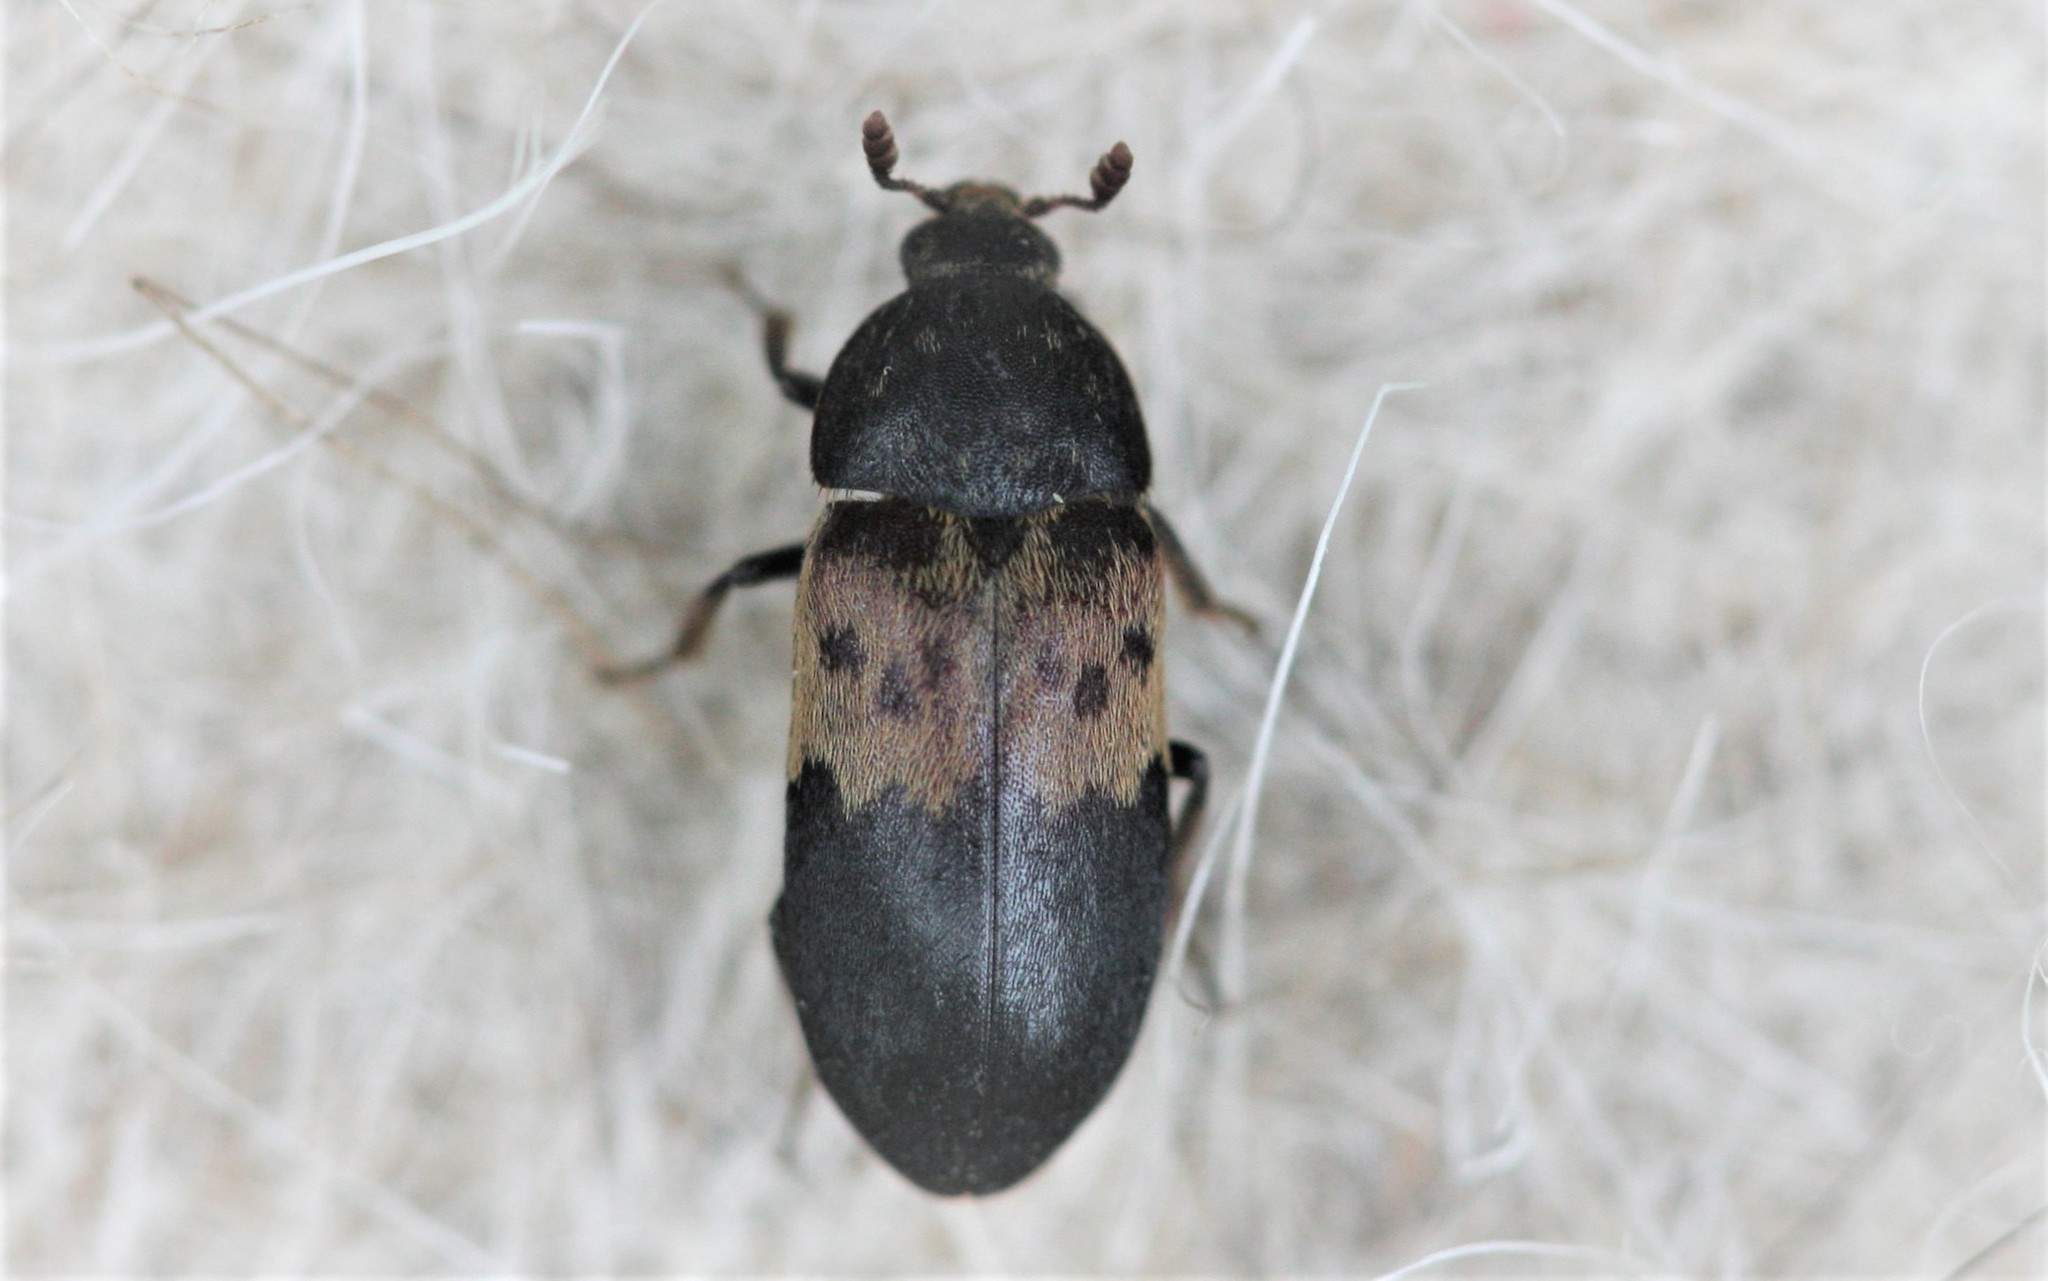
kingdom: Animalia
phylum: Arthropoda
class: Insecta
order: Coleoptera
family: Dermestidae
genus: Dermestes
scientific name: Dermestes lardarius
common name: Larder beetle
